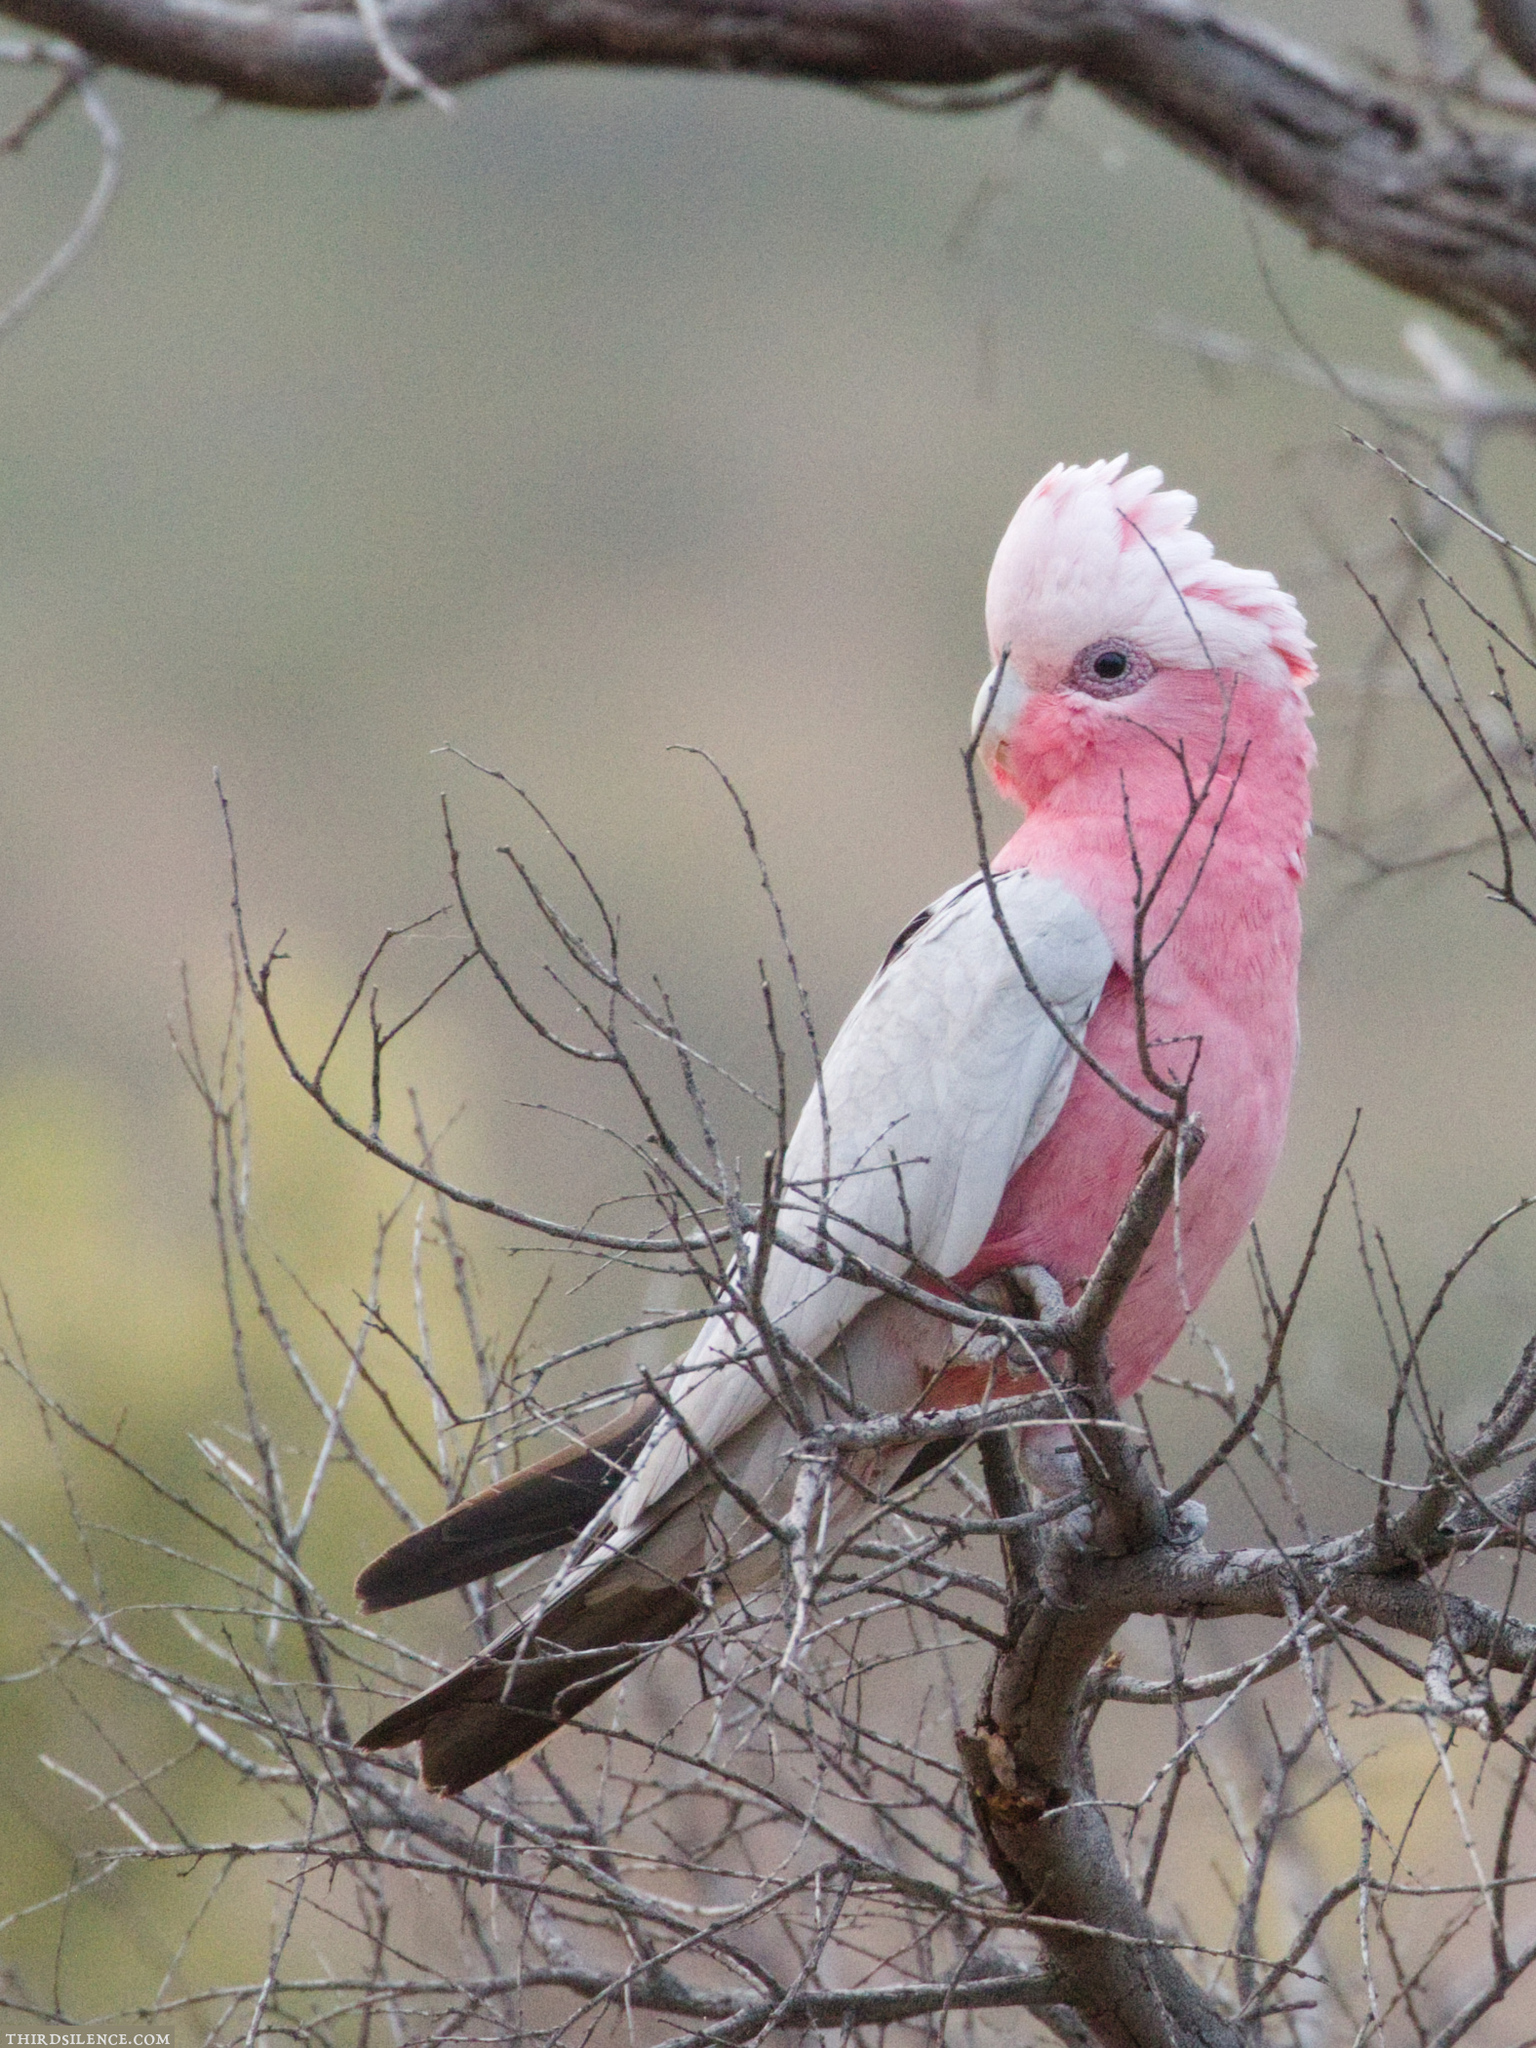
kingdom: Animalia
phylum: Chordata
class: Aves
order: Psittaciformes
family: Psittacidae
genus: Eolophus
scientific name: Eolophus roseicapilla
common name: Galah
